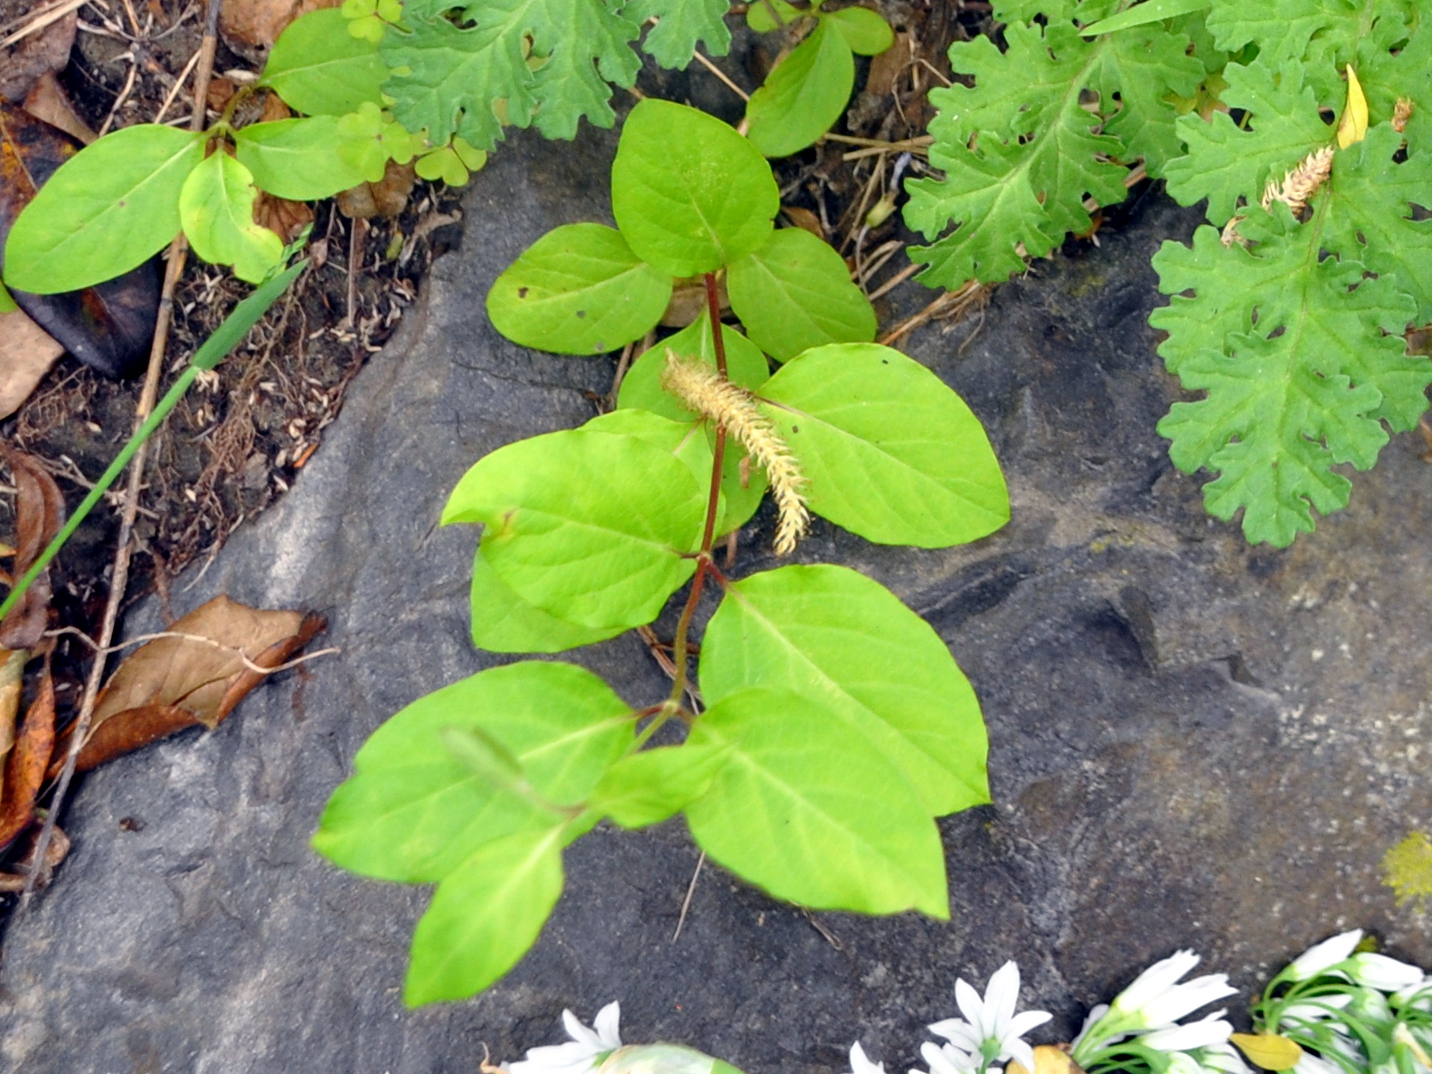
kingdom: Plantae
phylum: Tracheophyta
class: Magnoliopsida
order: Dipsacales
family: Caprifoliaceae
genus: Lonicera
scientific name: Lonicera japonica
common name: Japanese honeysuckle
